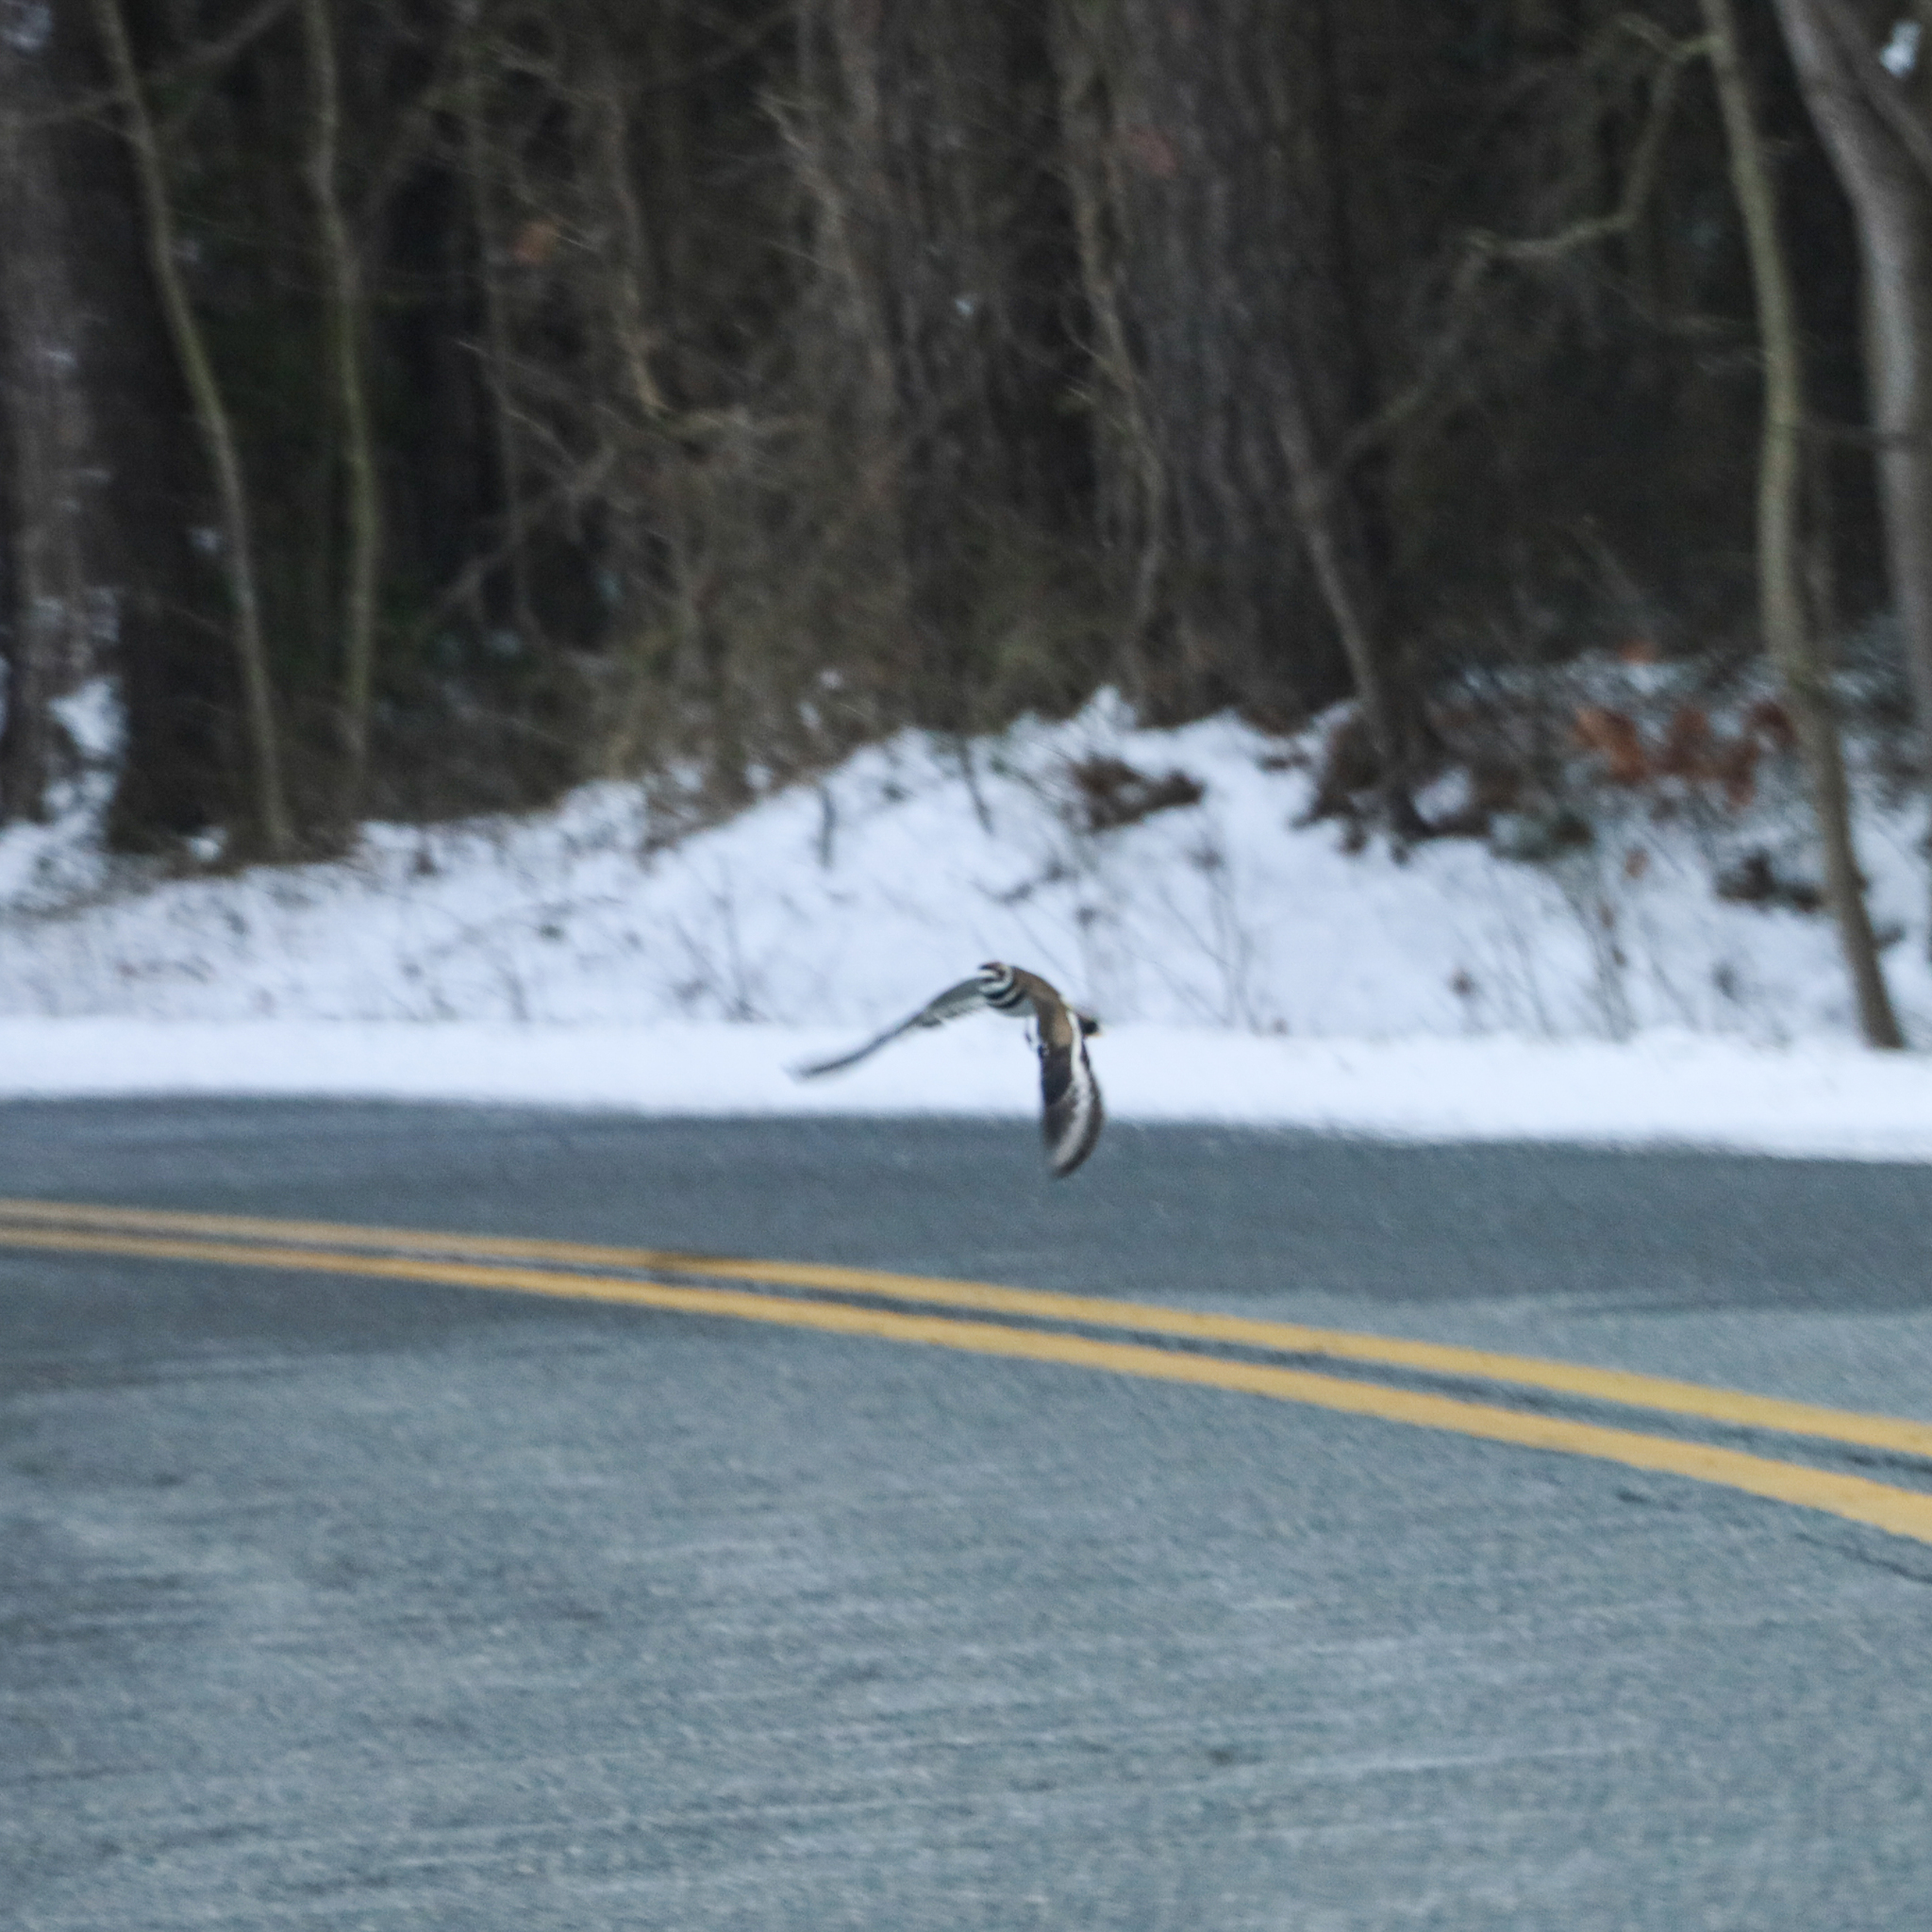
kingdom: Animalia
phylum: Chordata
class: Aves
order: Charadriiformes
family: Charadriidae
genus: Charadrius
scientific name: Charadrius vociferus
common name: Killdeer
